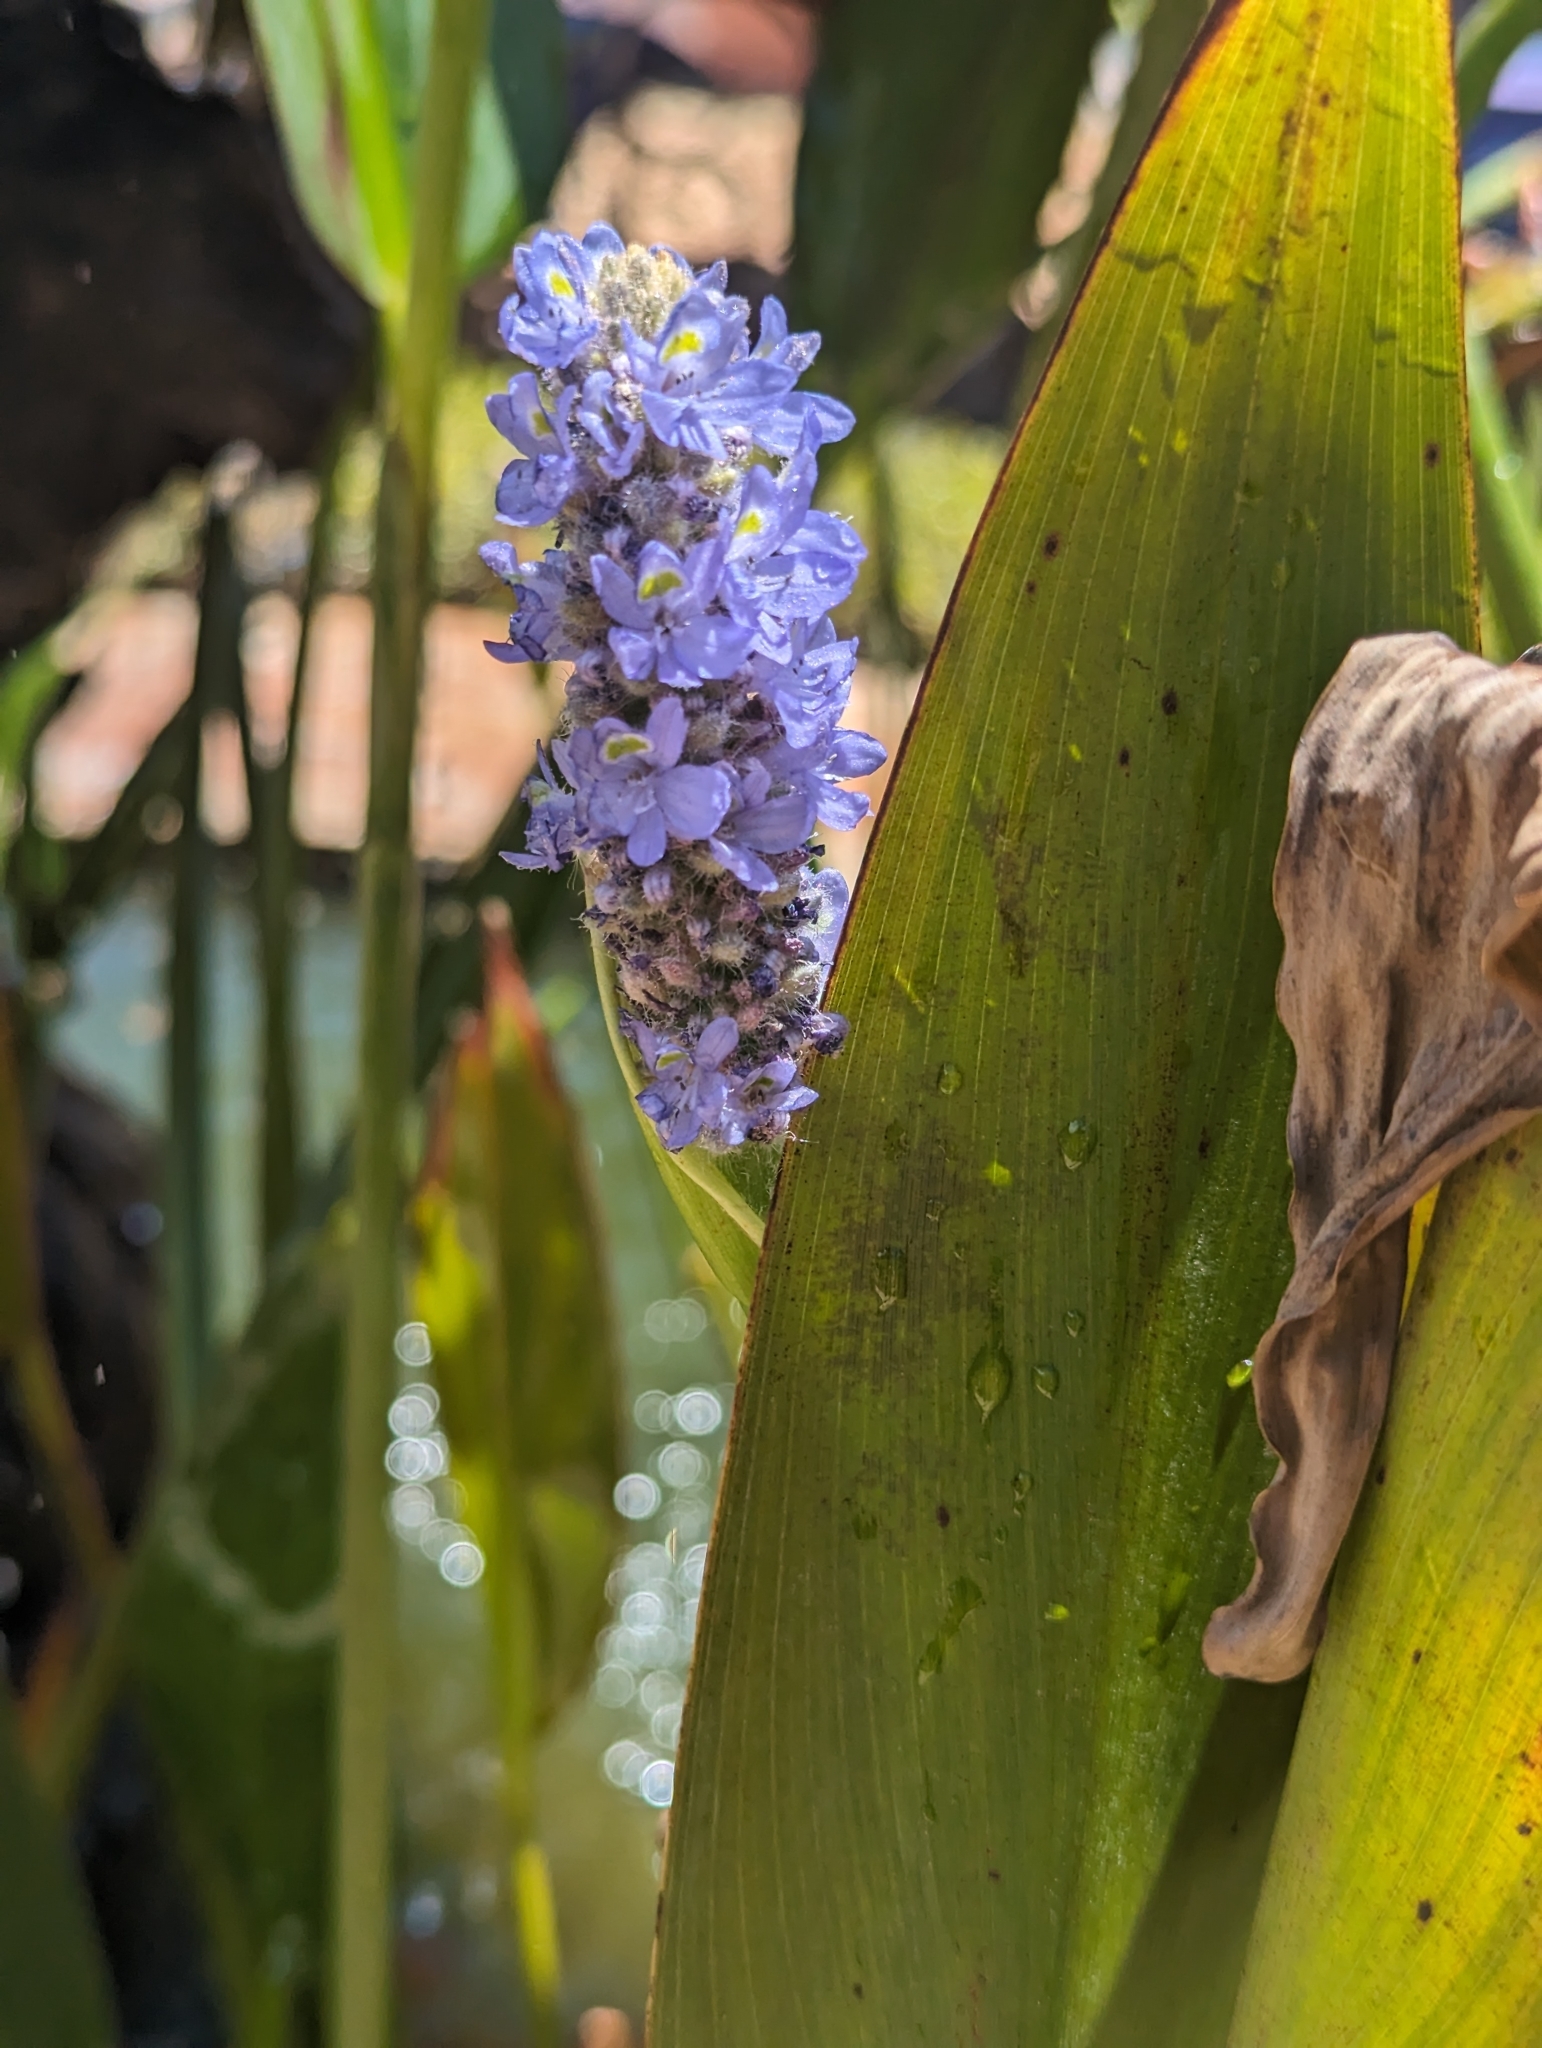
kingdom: Plantae
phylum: Tracheophyta
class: Liliopsida
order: Commelinales
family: Pontederiaceae
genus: Pontederia
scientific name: Pontederia cordata
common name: Pickerelweed
